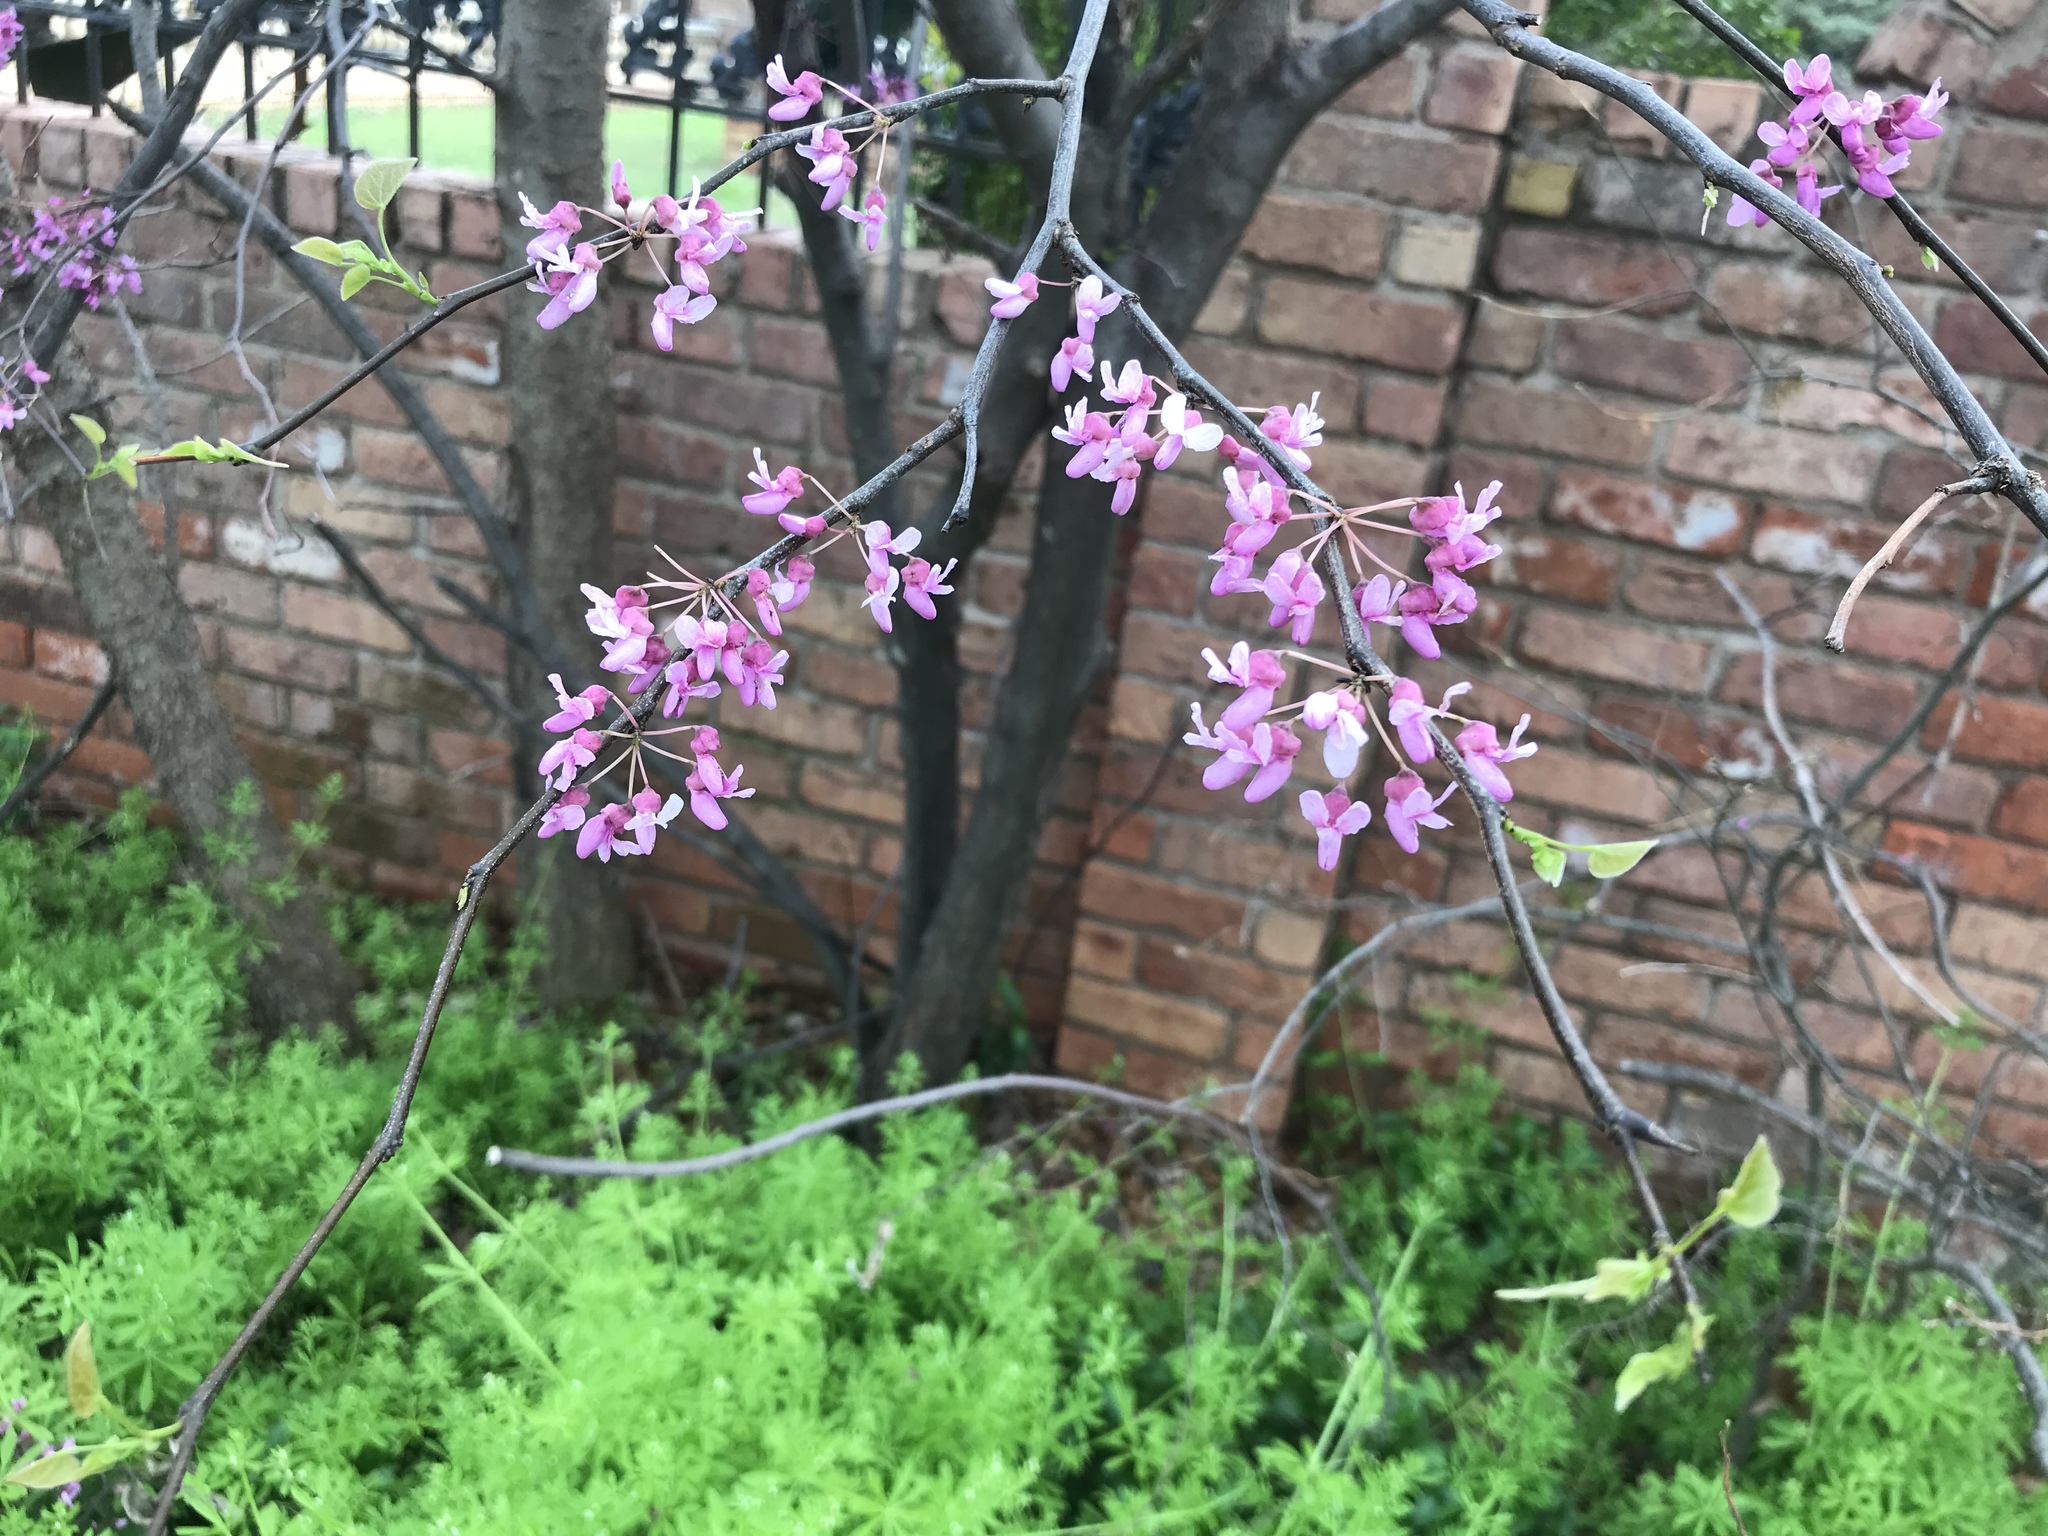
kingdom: Plantae
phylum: Tracheophyta
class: Magnoliopsida
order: Fabales
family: Fabaceae
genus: Cercis
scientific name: Cercis canadensis
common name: Eastern redbud
